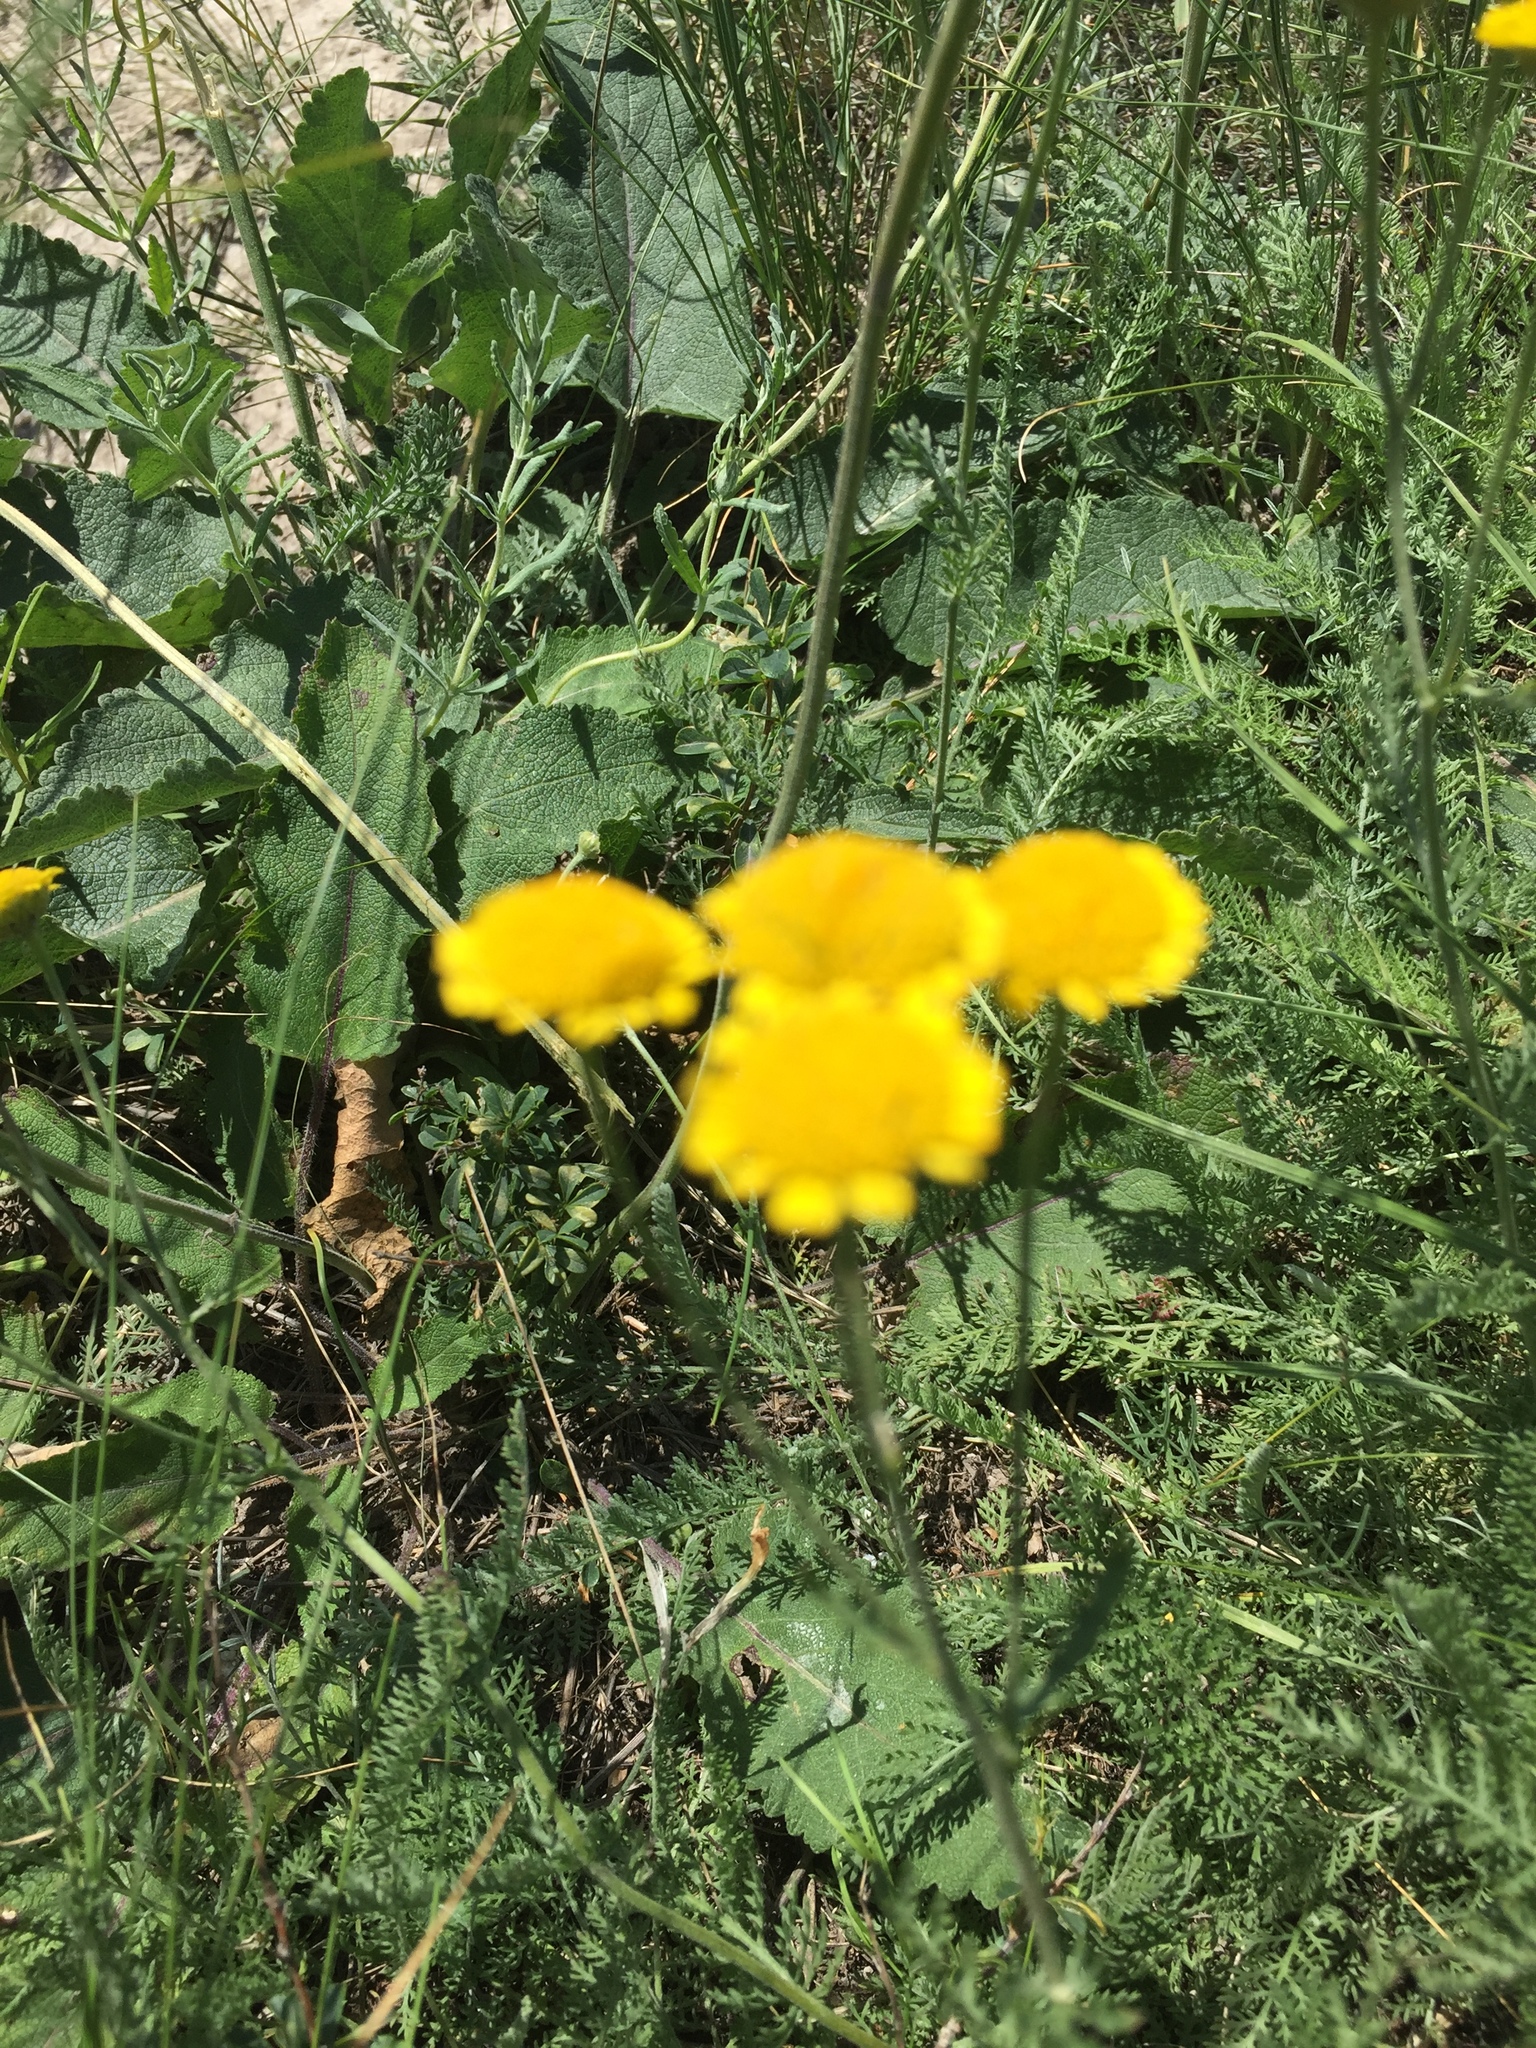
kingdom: Plantae
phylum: Tracheophyta
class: Magnoliopsida
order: Asterales
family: Asteraceae
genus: Tanacetum
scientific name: Tanacetum achilleifolium
